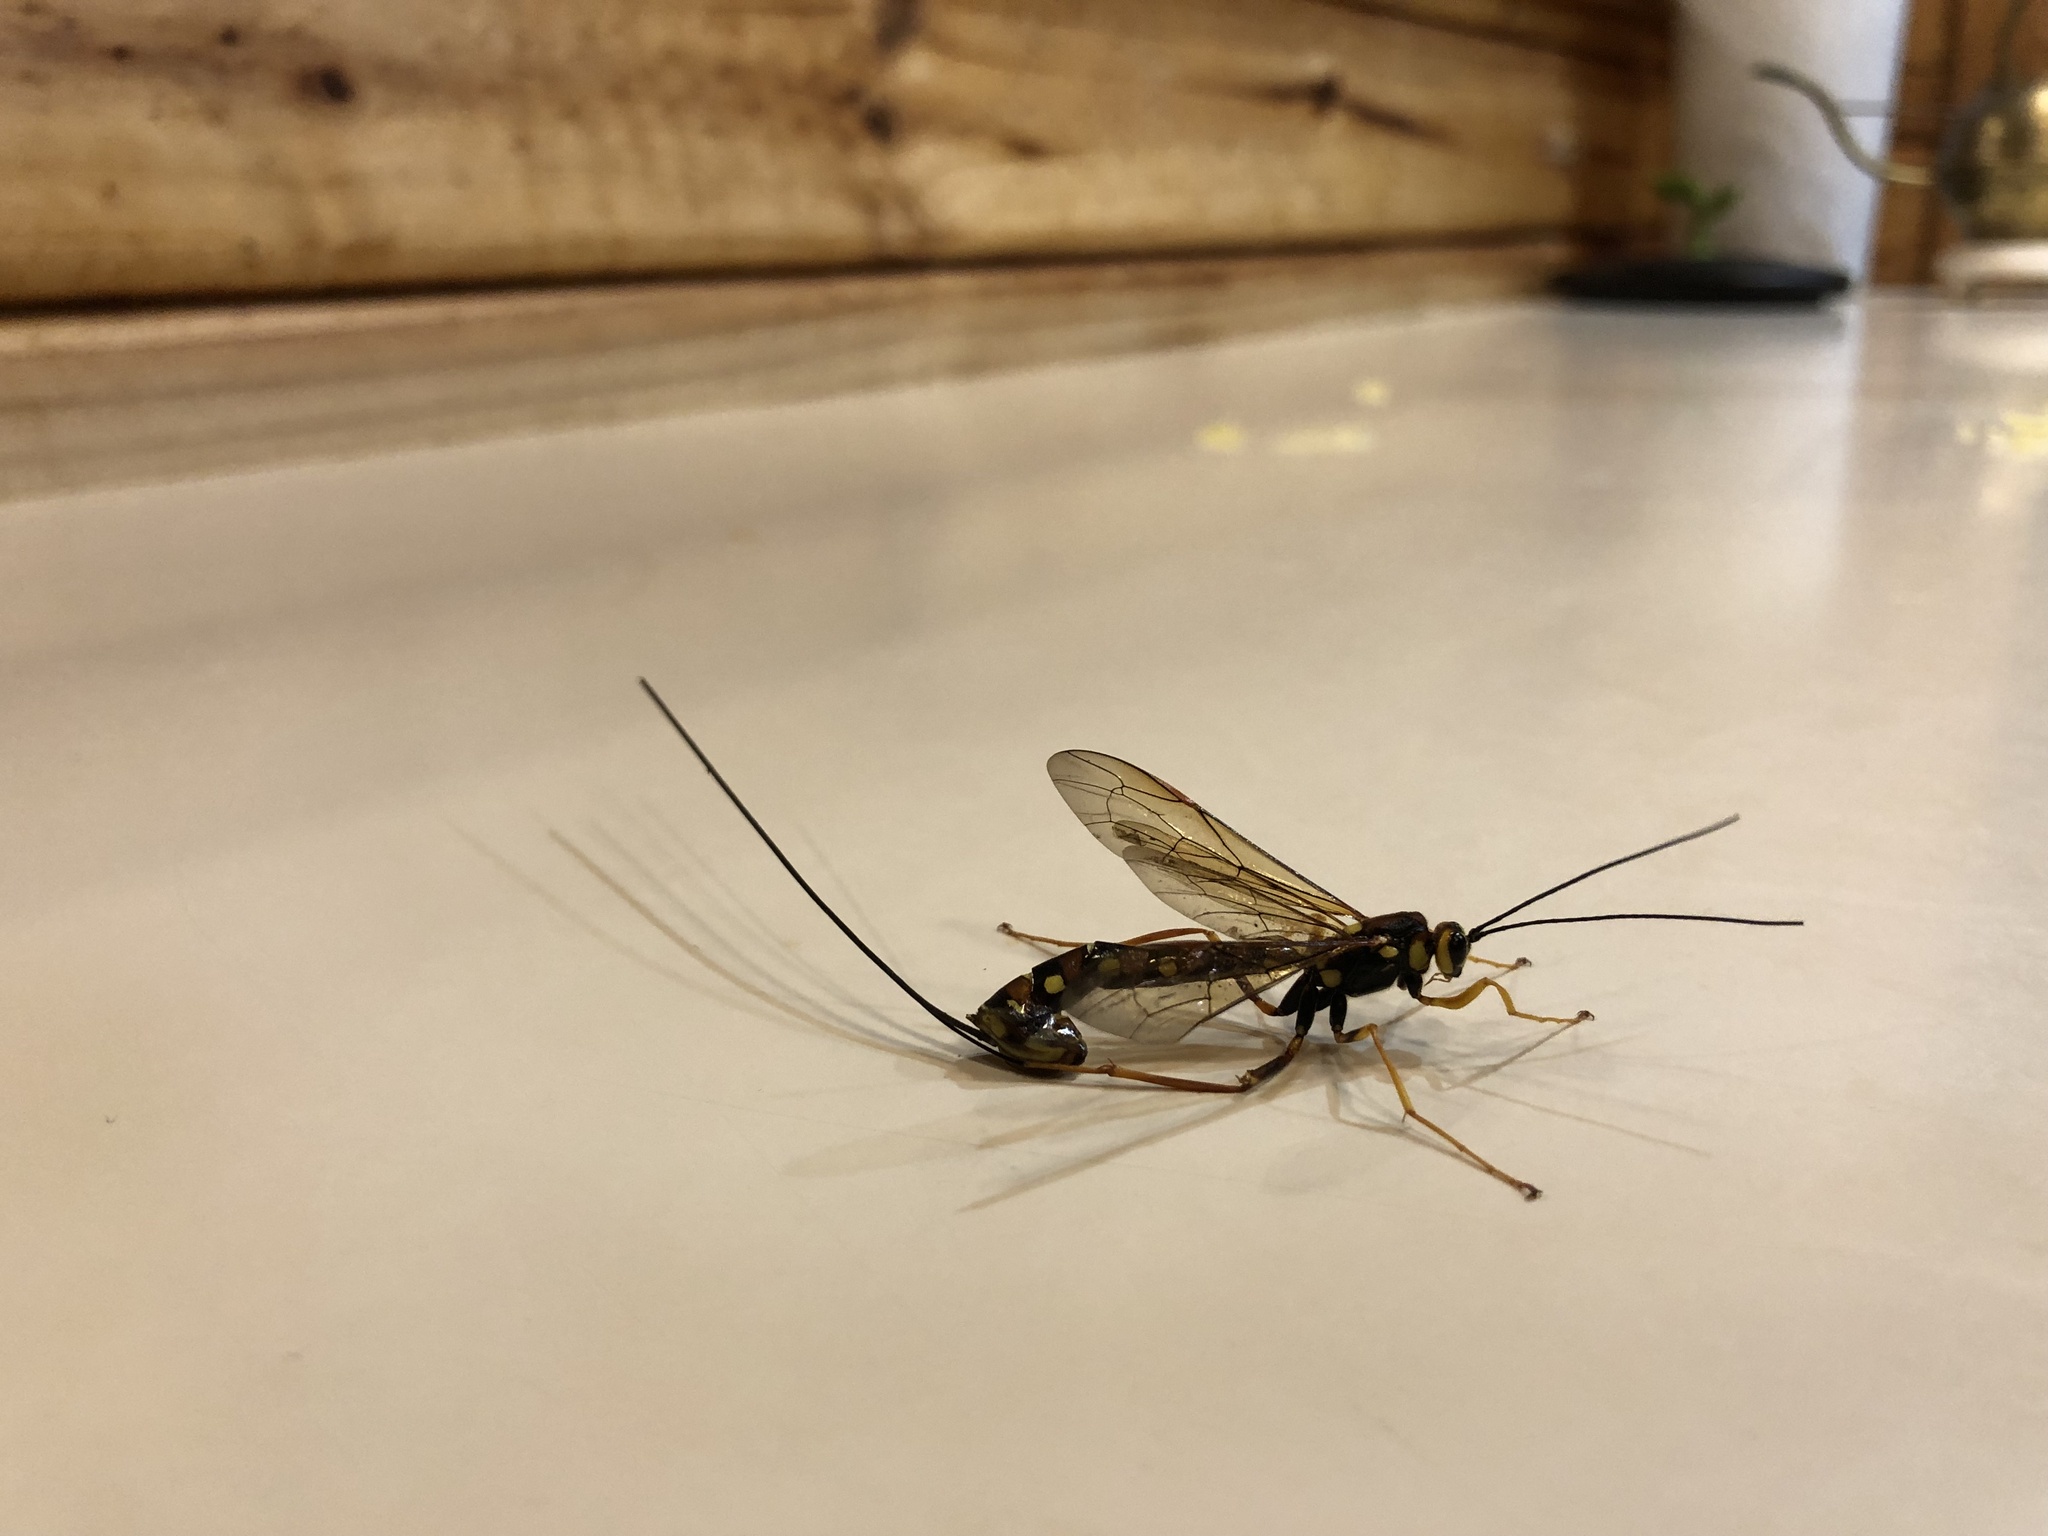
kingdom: Animalia
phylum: Arthropoda
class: Insecta
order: Hymenoptera
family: Ichneumonidae
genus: Megarhyssa
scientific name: Megarhyssa nortoni
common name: Norton's giant ichneumonid wasp
